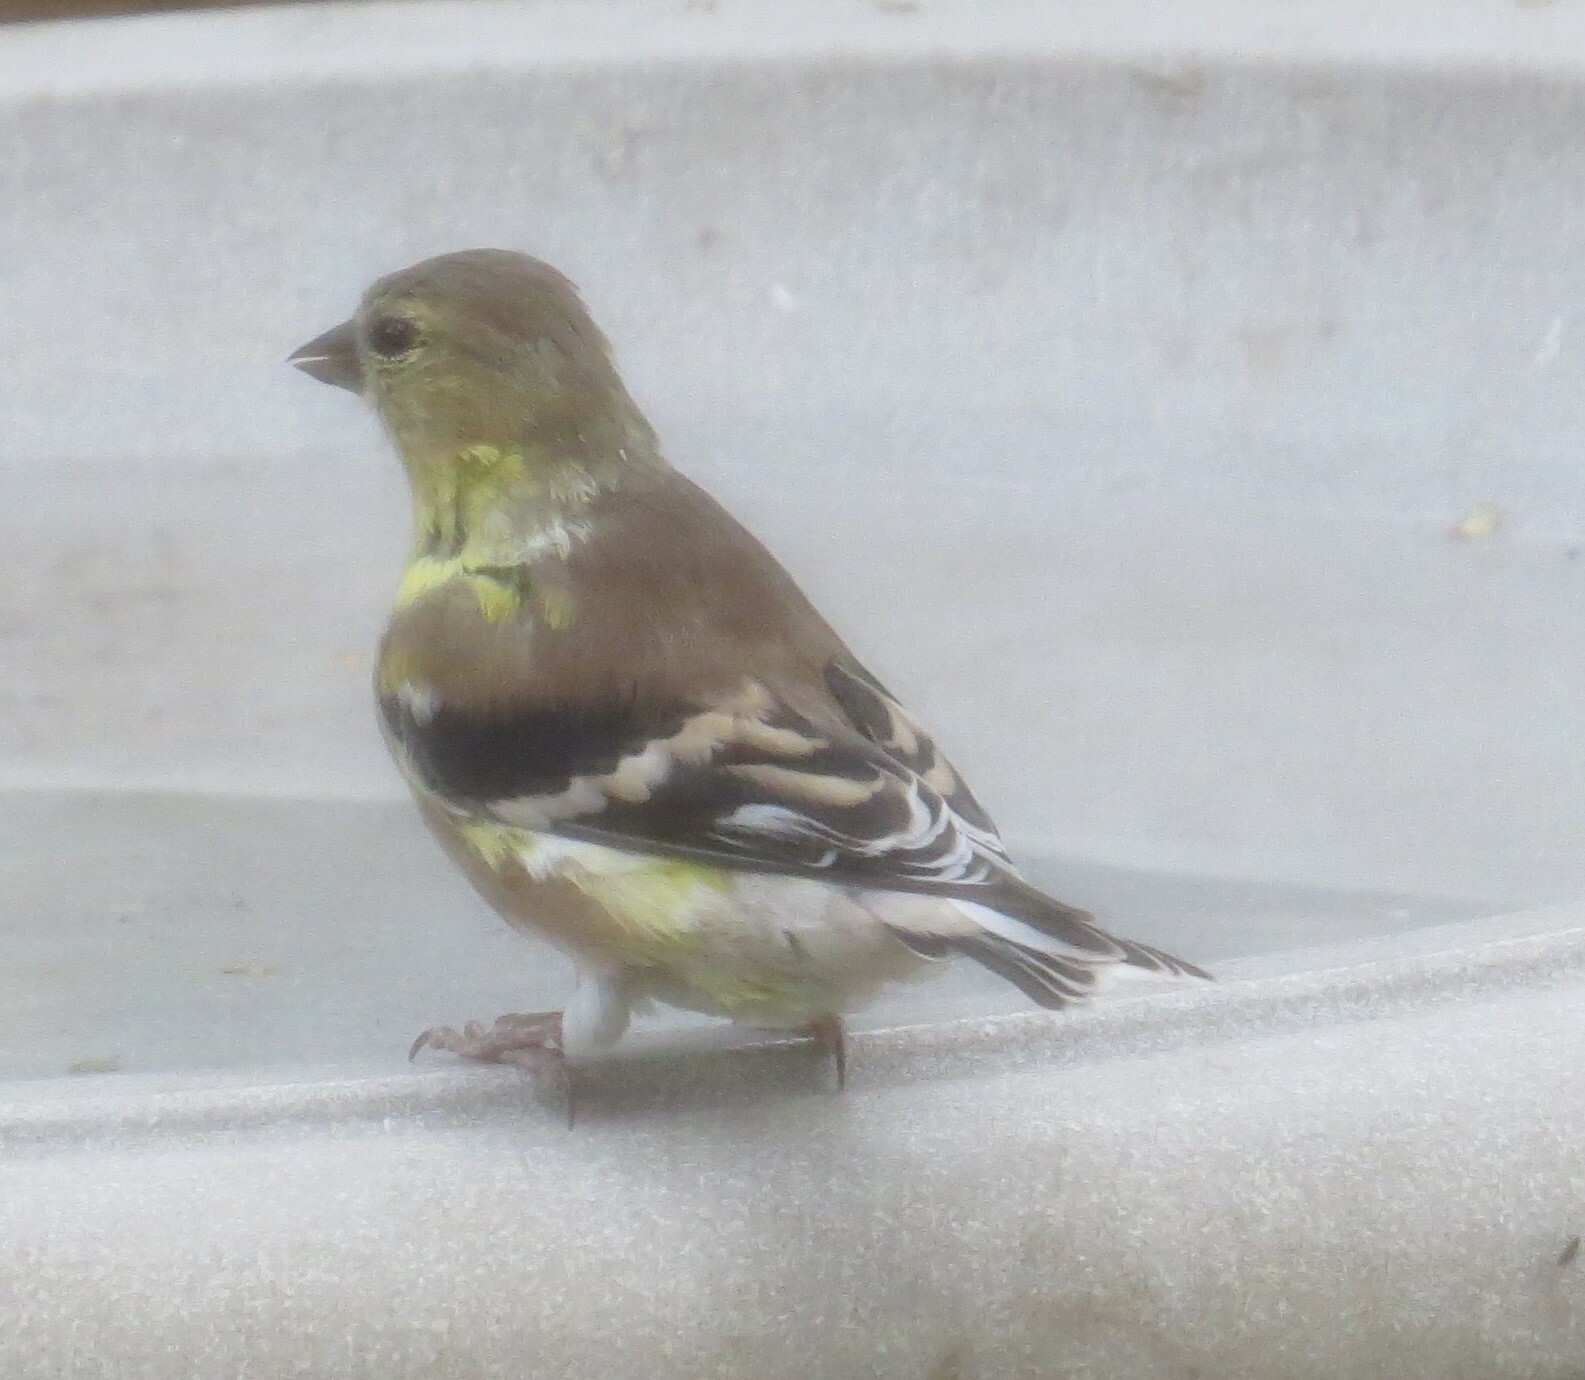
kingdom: Animalia
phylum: Chordata
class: Aves
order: Passeriformes
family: Fringillidae
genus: Spinus
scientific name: Spinus tristis
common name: American goldfinch
